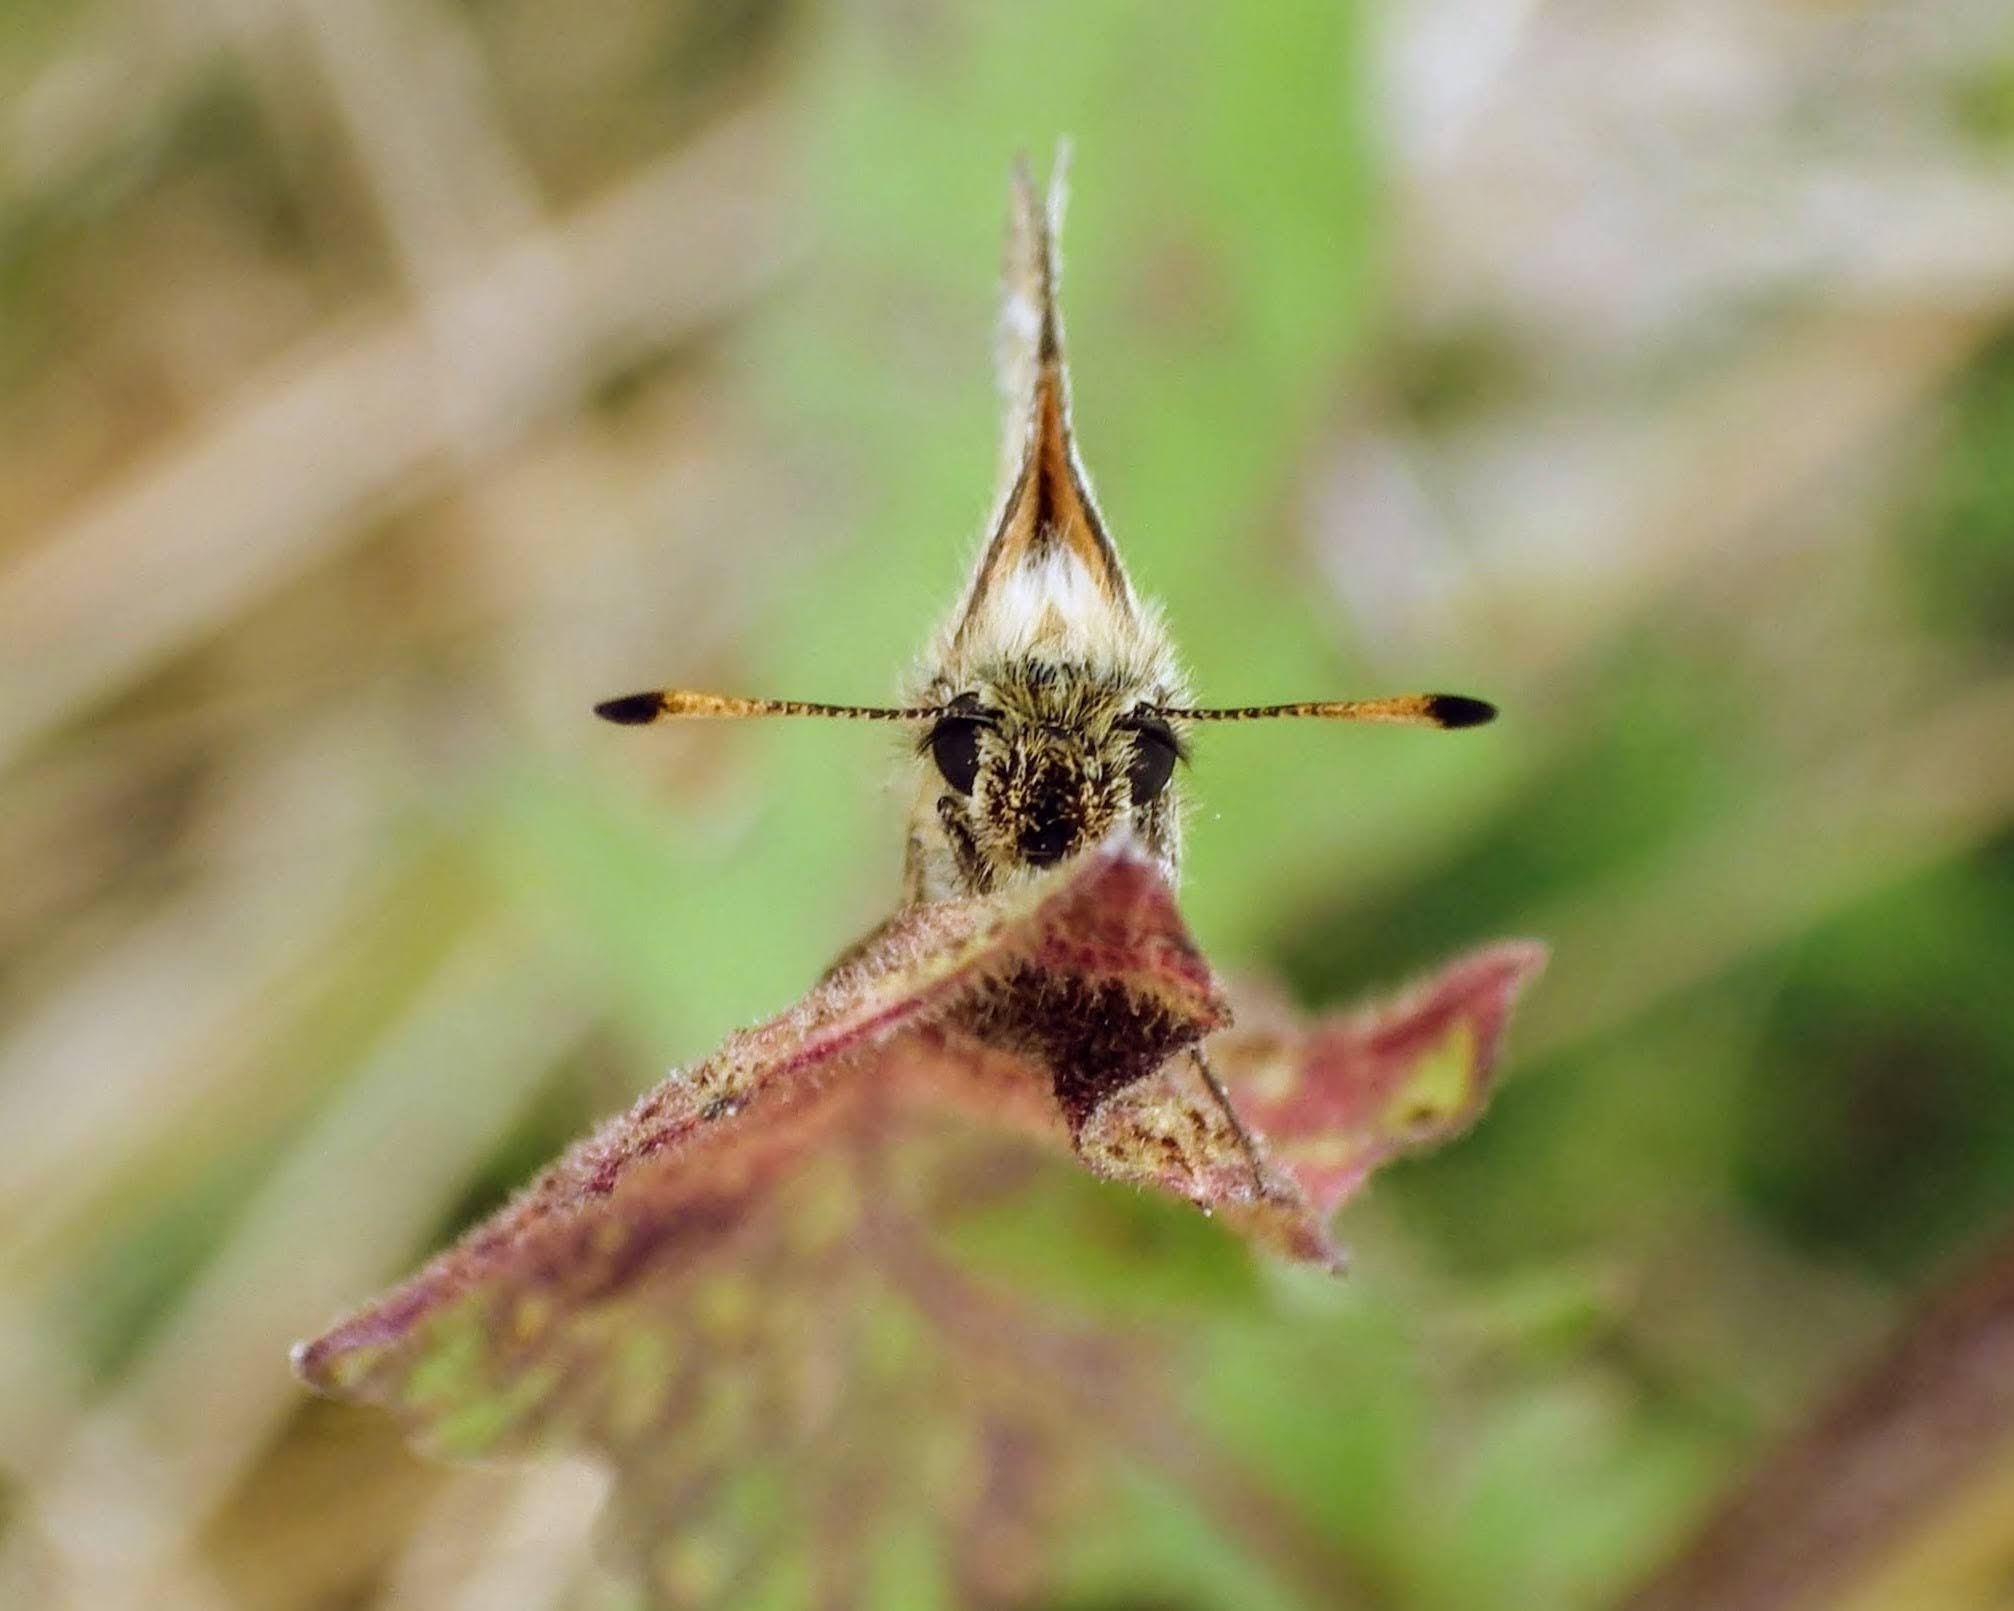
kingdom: Animalia
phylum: Arthropoda
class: Insecta
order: Lepidoptera
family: Hesperiidae
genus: Thymelicus
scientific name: Thymelicus lineola
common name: Essex skipper
